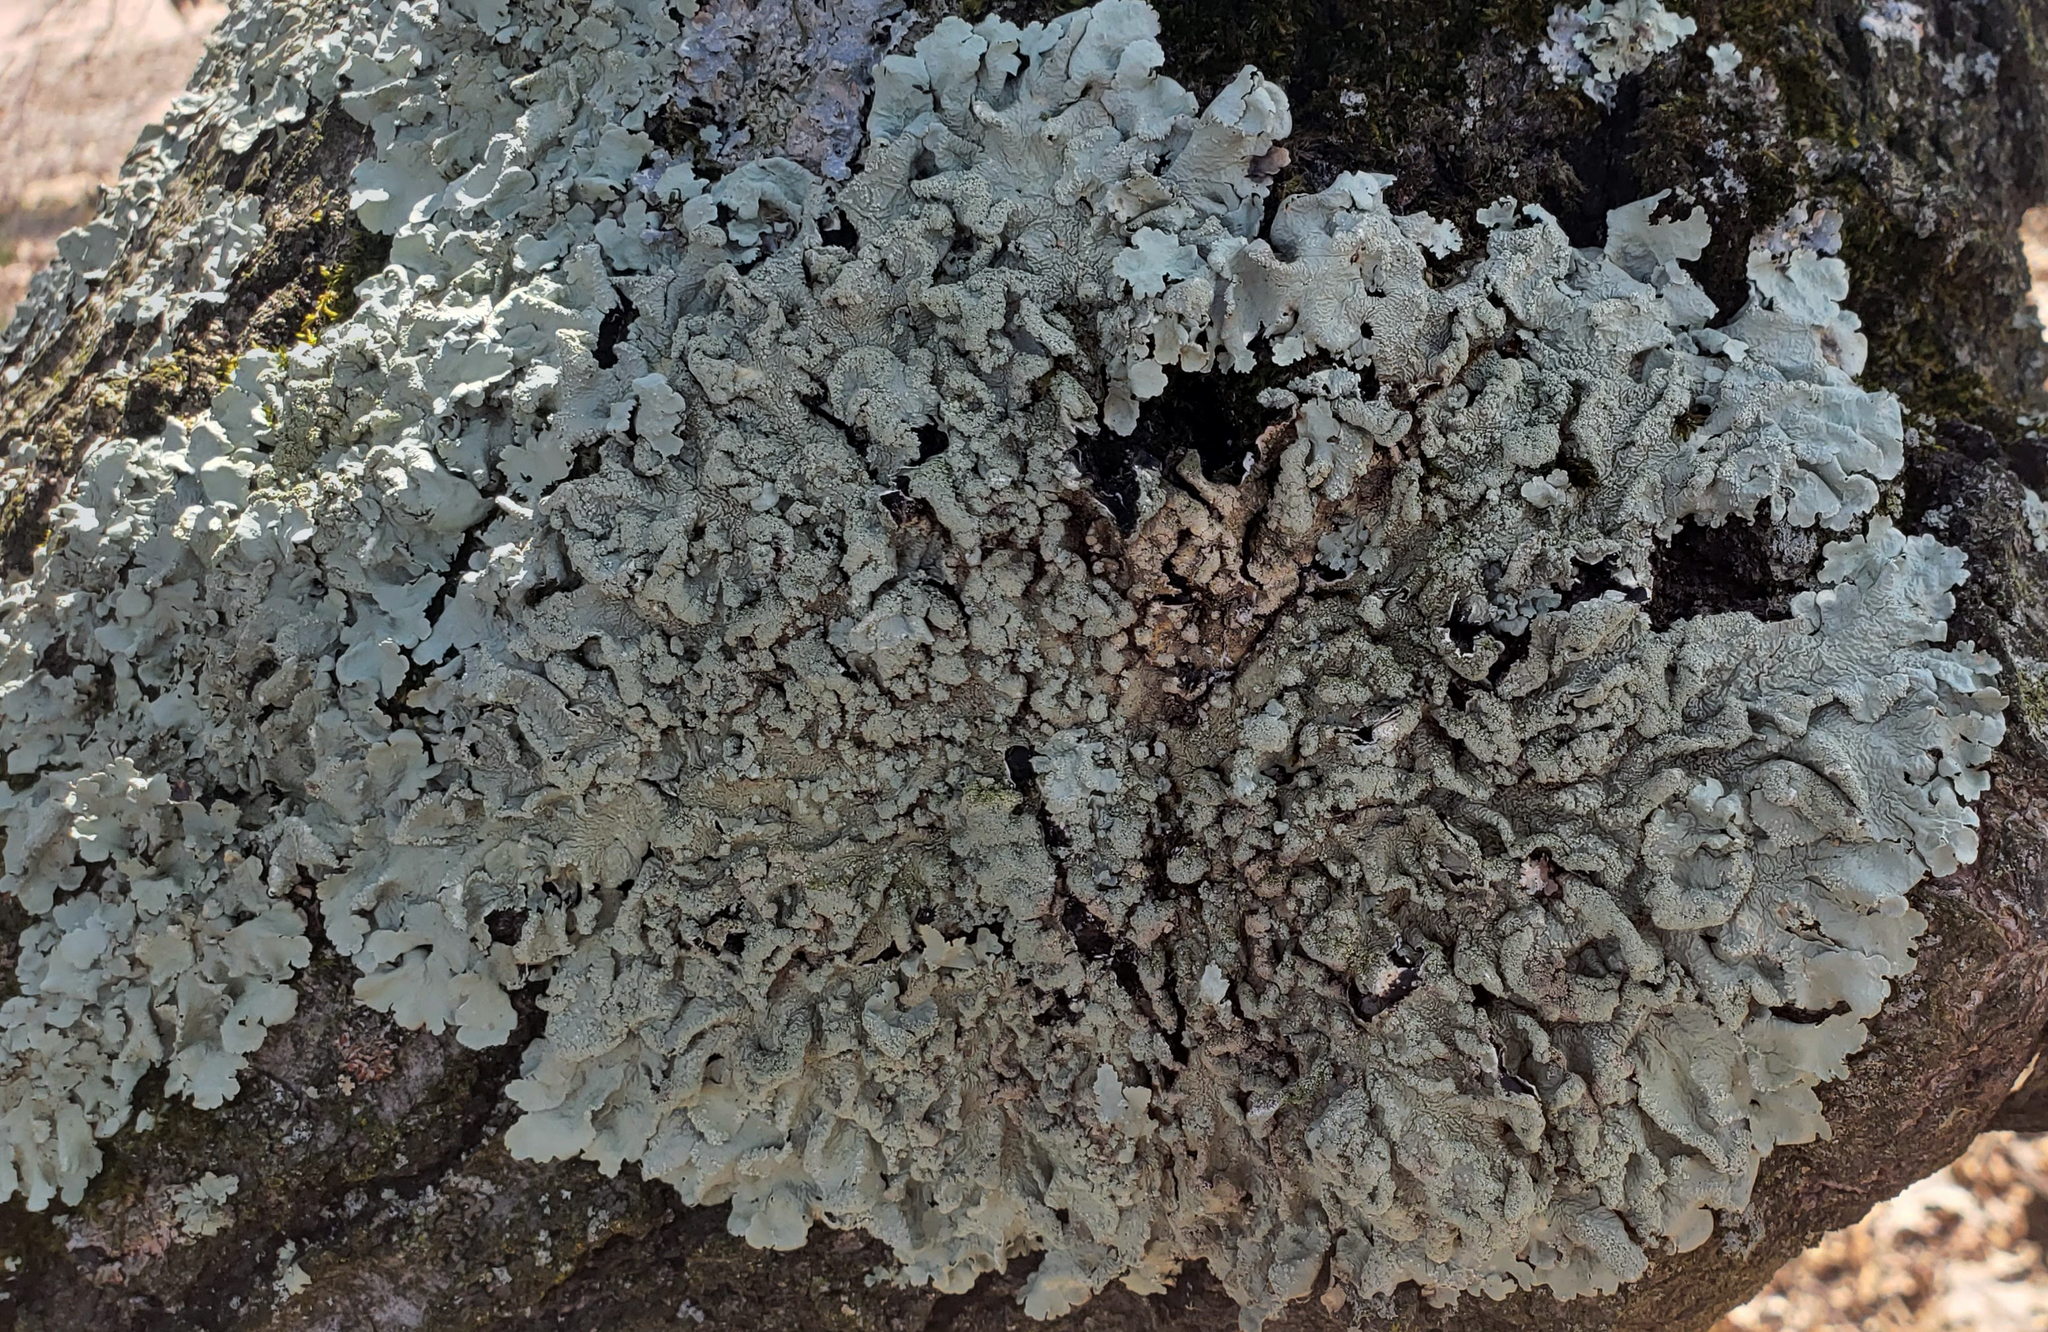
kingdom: Fungi
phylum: Ascomycota
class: Lecanoromycetes
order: Lecanorales
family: Parmeliaceae
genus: Flavoparmelia
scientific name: Flavoparmelia caperata
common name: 40-mile per hour lichen
